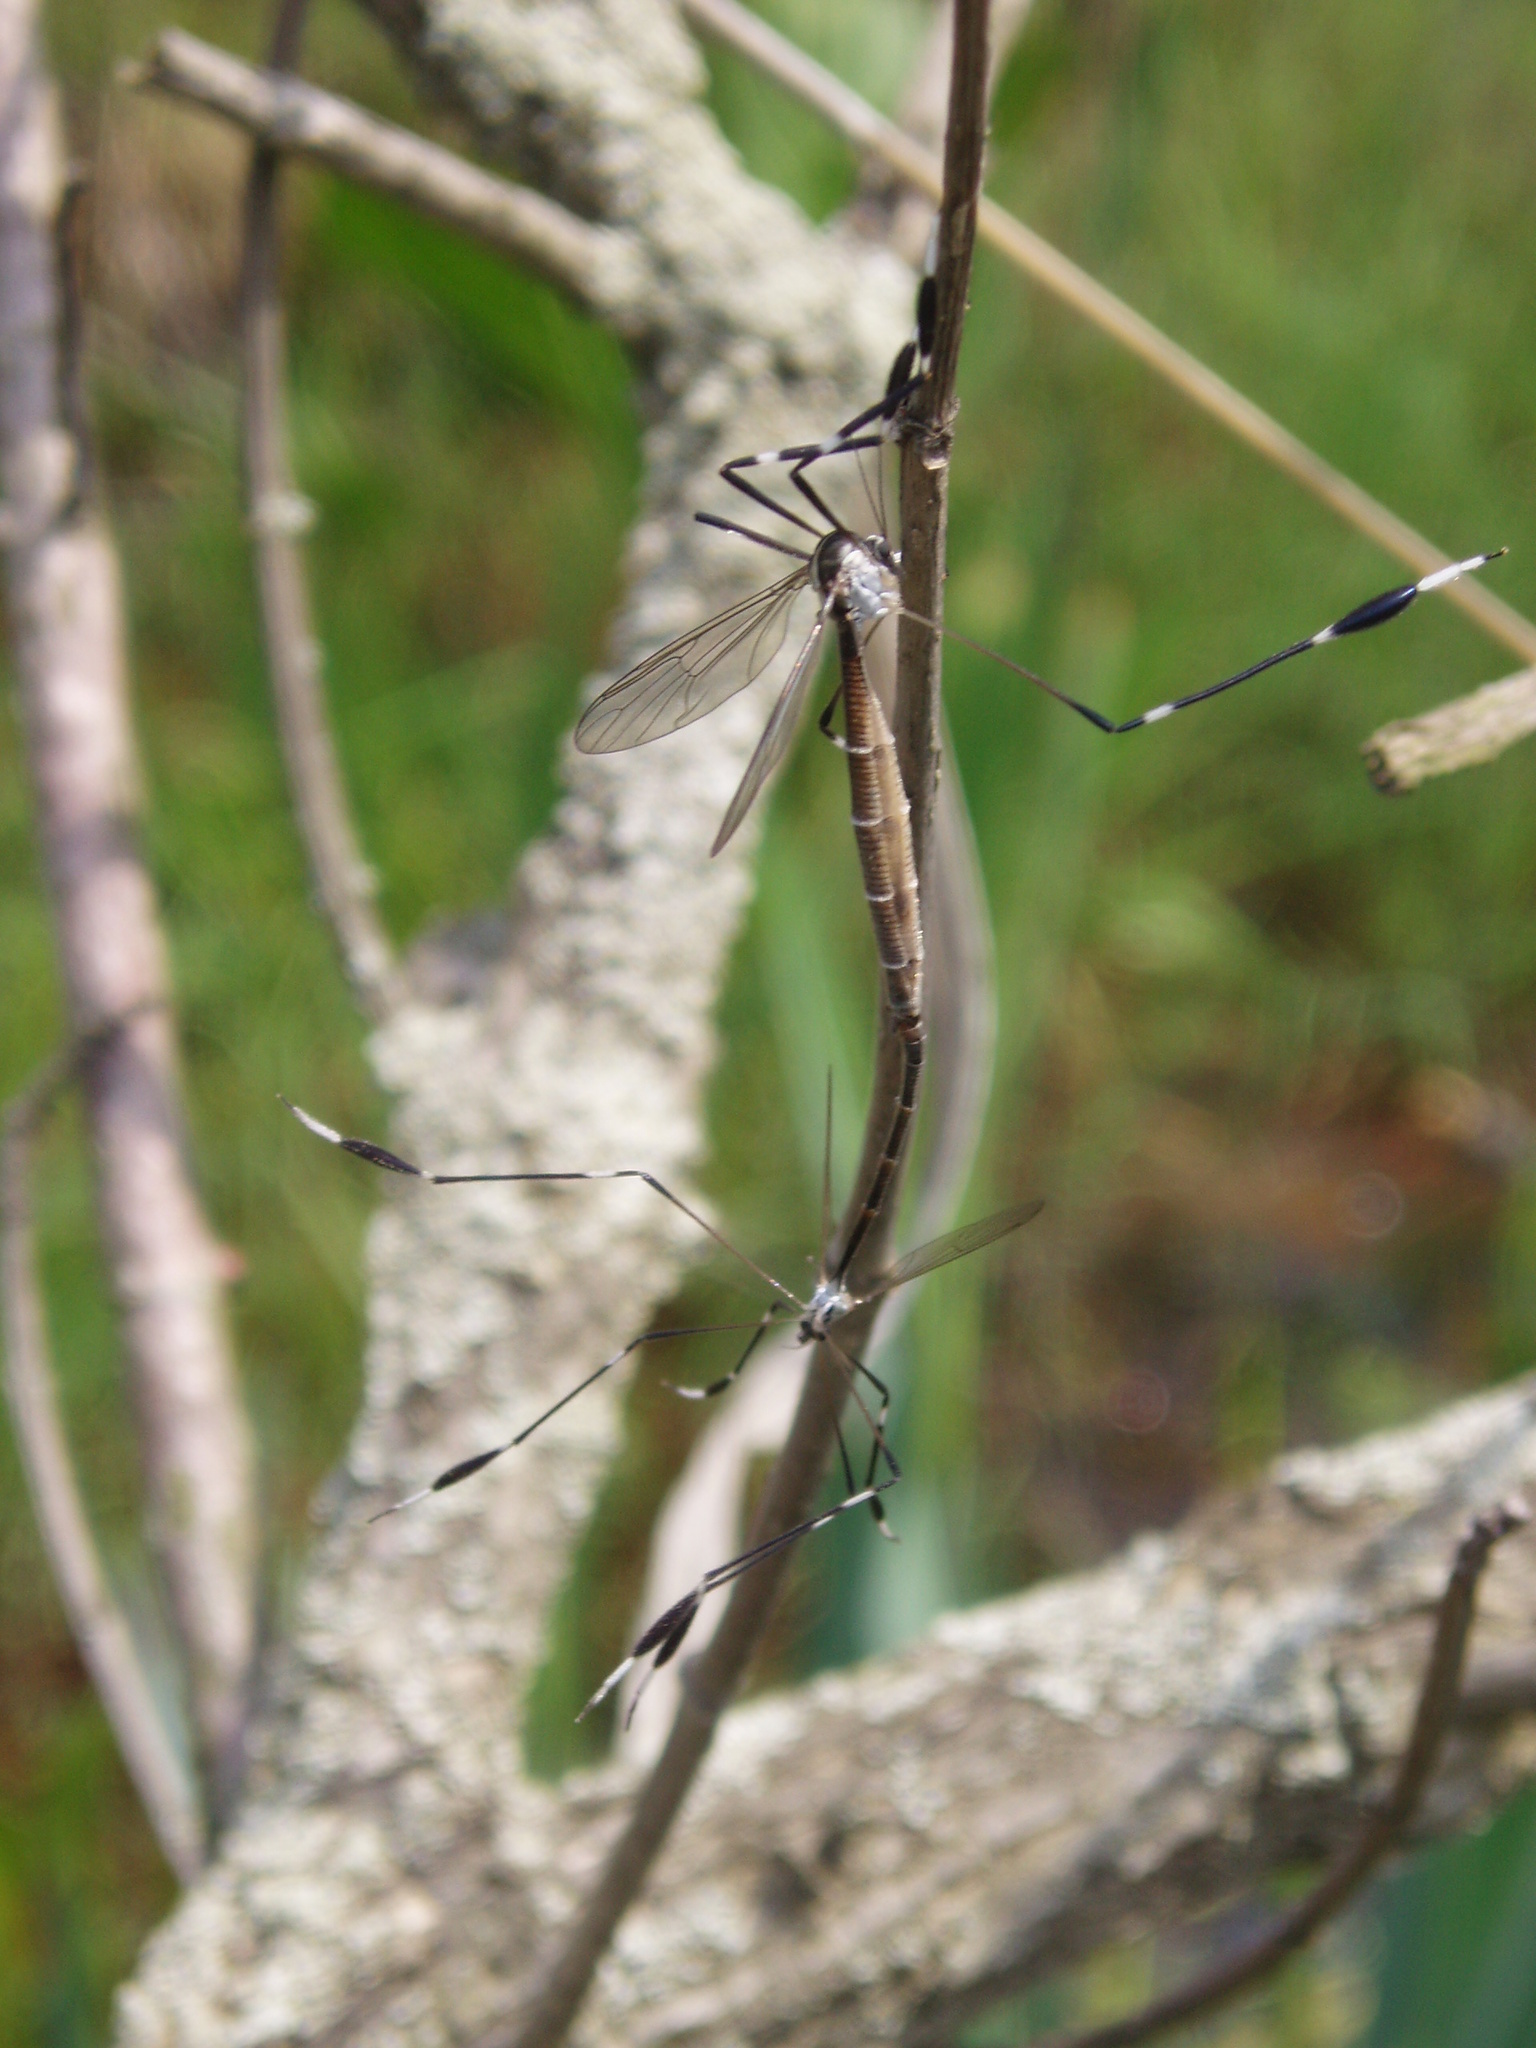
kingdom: Animalia
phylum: Arthropoda
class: Insecta
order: Diptera
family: Ptychopteridae
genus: Bittacomorpha
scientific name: Bittacomorpha clavipes
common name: Eastern phantom crane fly
